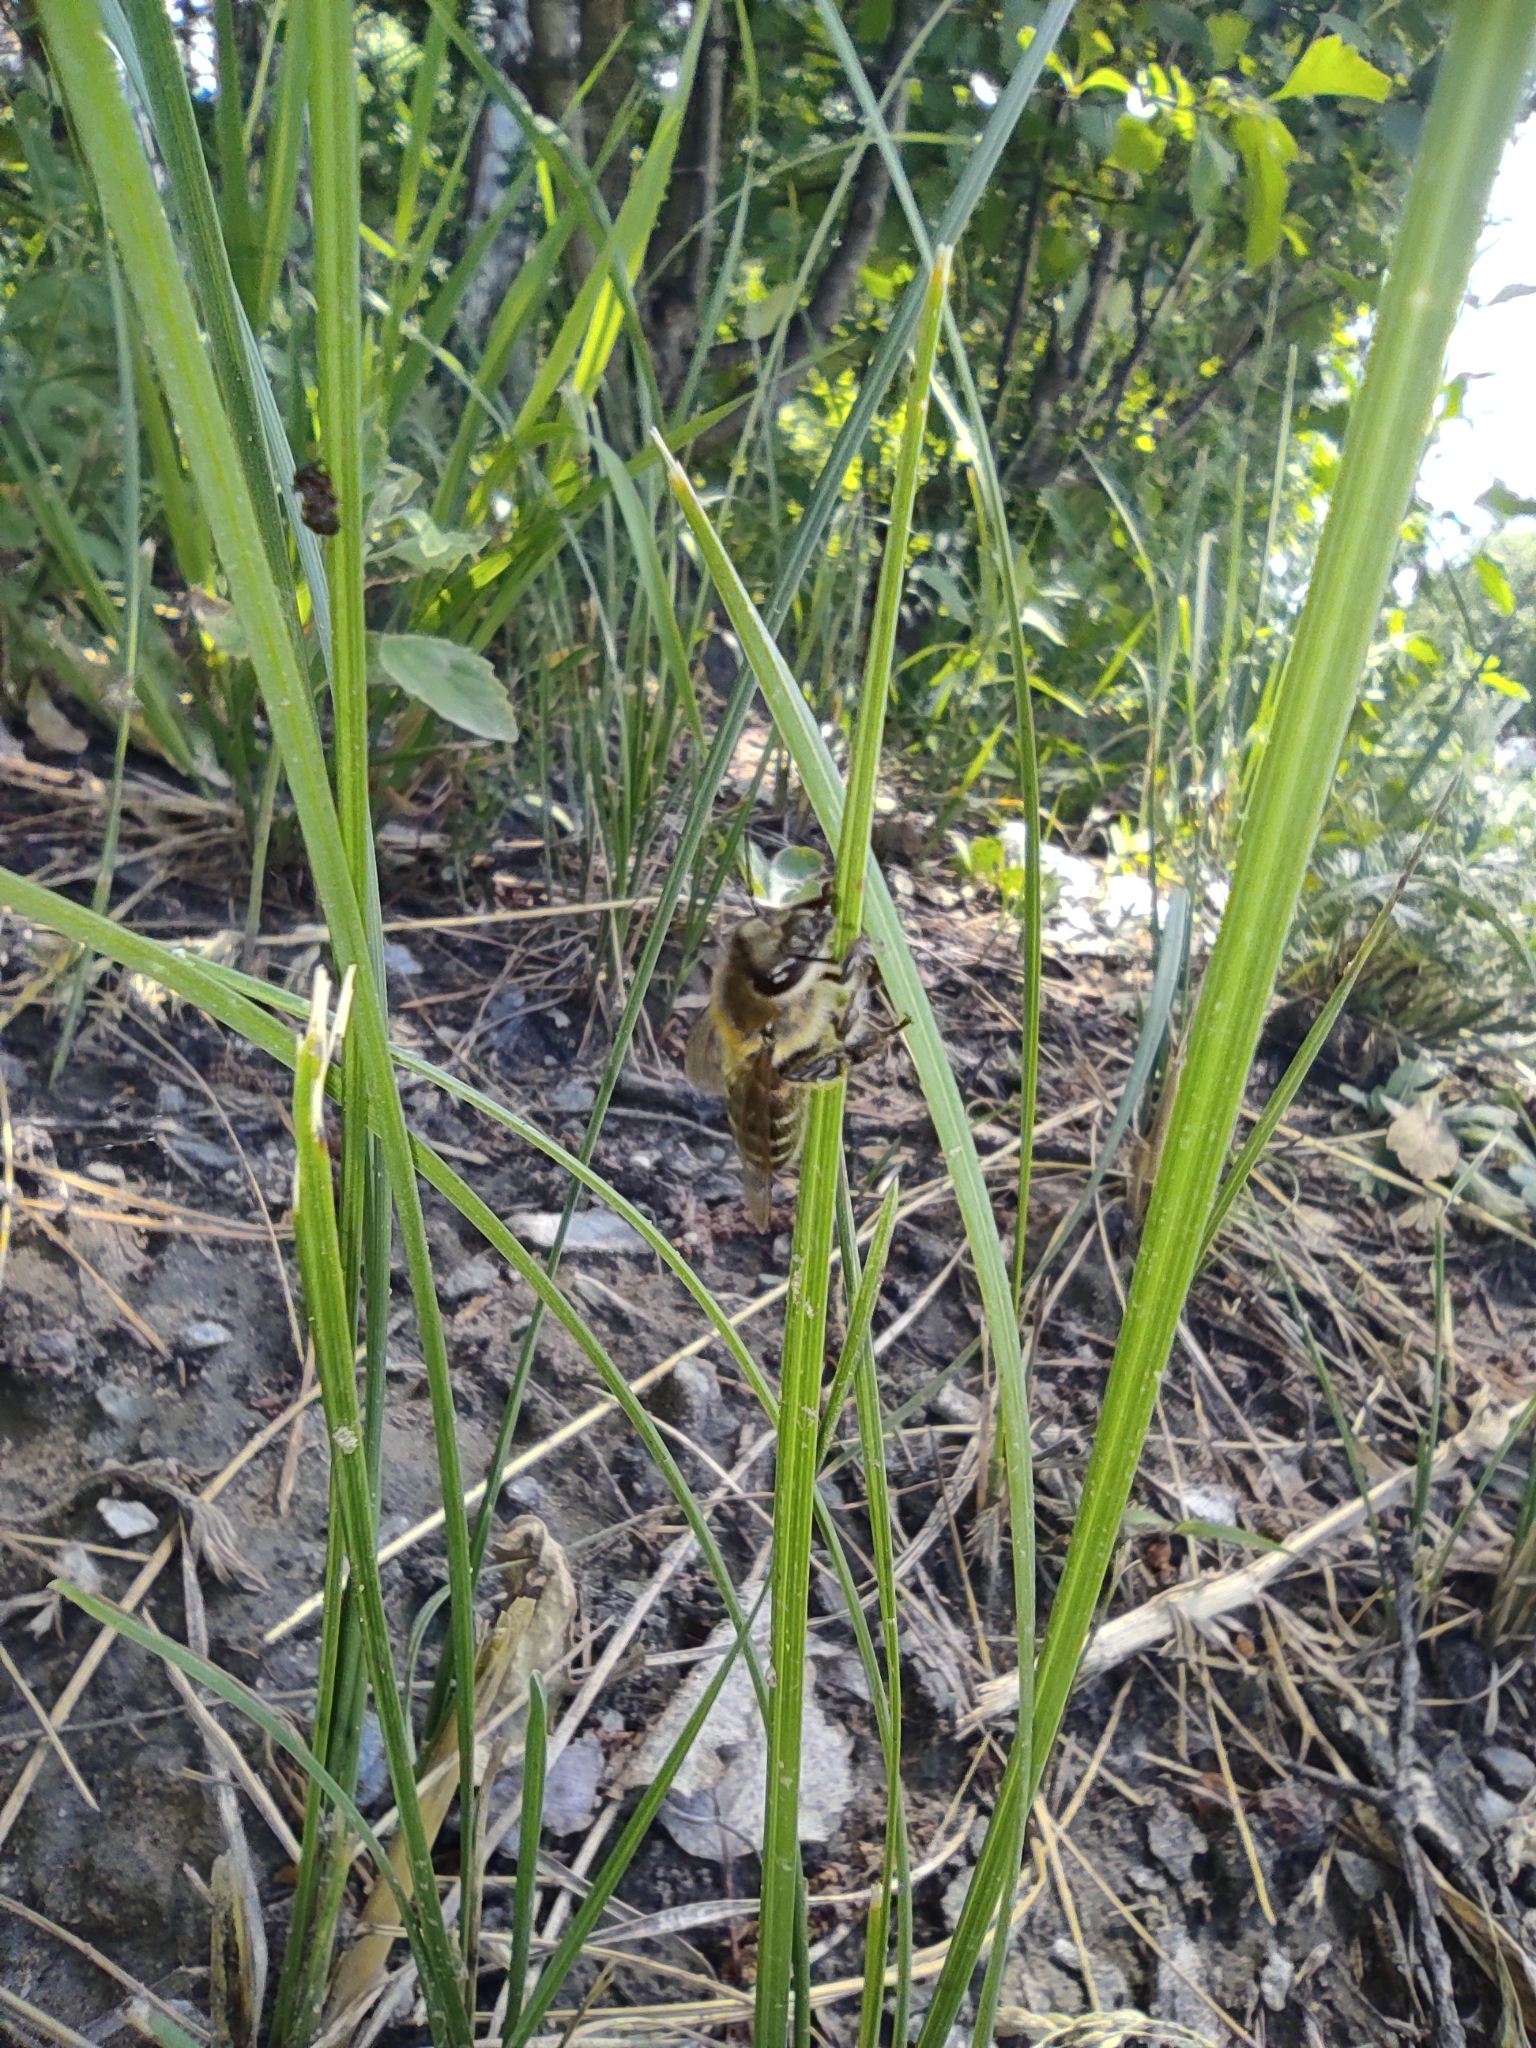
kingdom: Animalia
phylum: Arthropoda
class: Insecta
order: Hymenoptera
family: Apidae
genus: Apis
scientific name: Apis mellifera
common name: Honey bee
